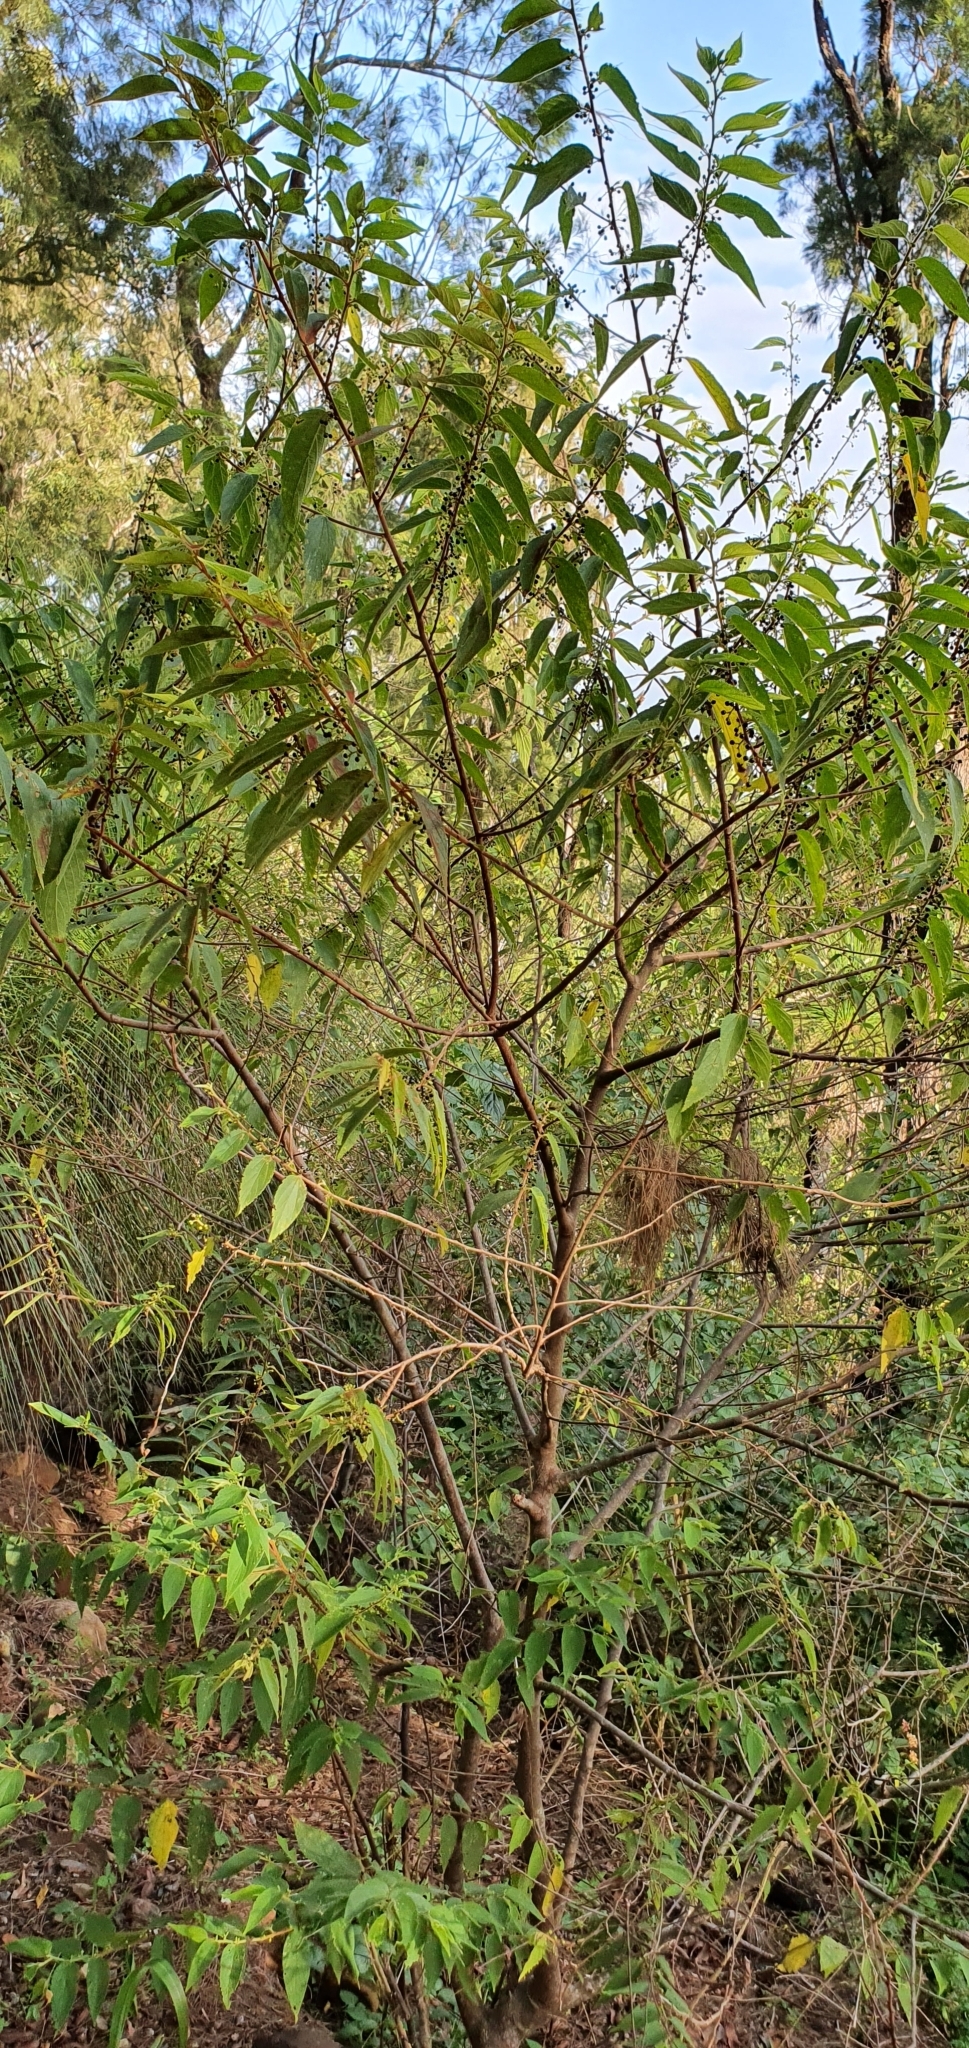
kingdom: Plantae
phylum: Tracheophyta
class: Magnoliopsida
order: Rosales
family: Cannabaceae
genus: Trema
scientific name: Trema tomentosum
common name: Peach-leaf-poisonbush
